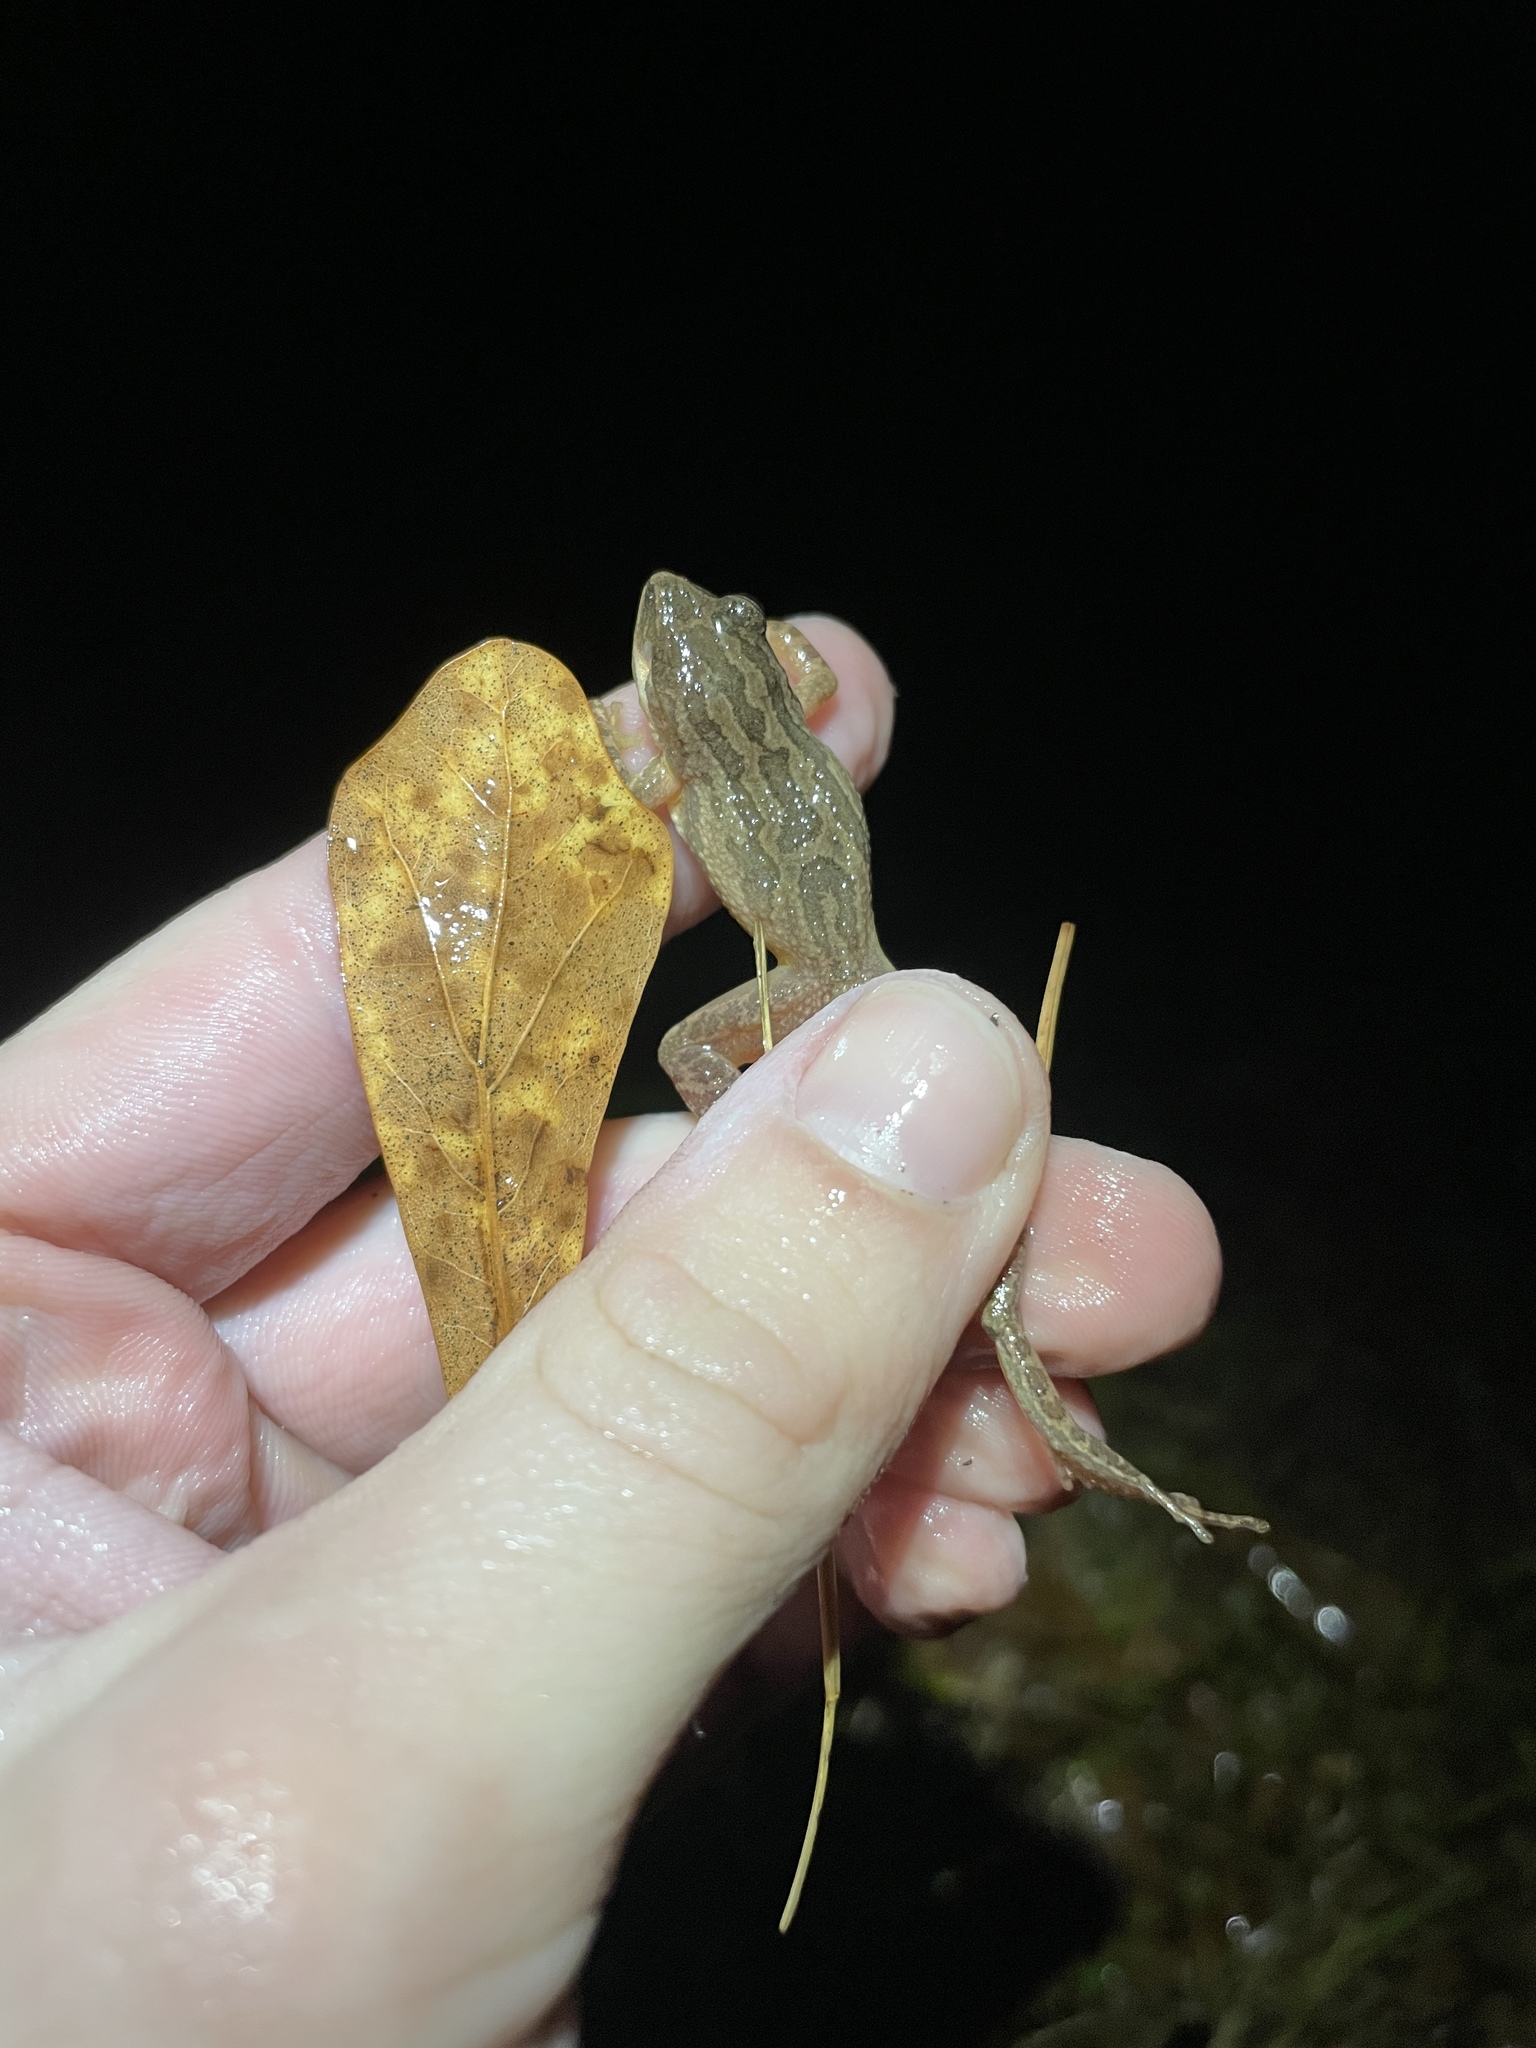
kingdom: Animalia
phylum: Chordata
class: Amphibia
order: Anura
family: Hylidae
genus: Pseudacris
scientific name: Pseudacris fouquettei
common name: Cajun chorus frog
